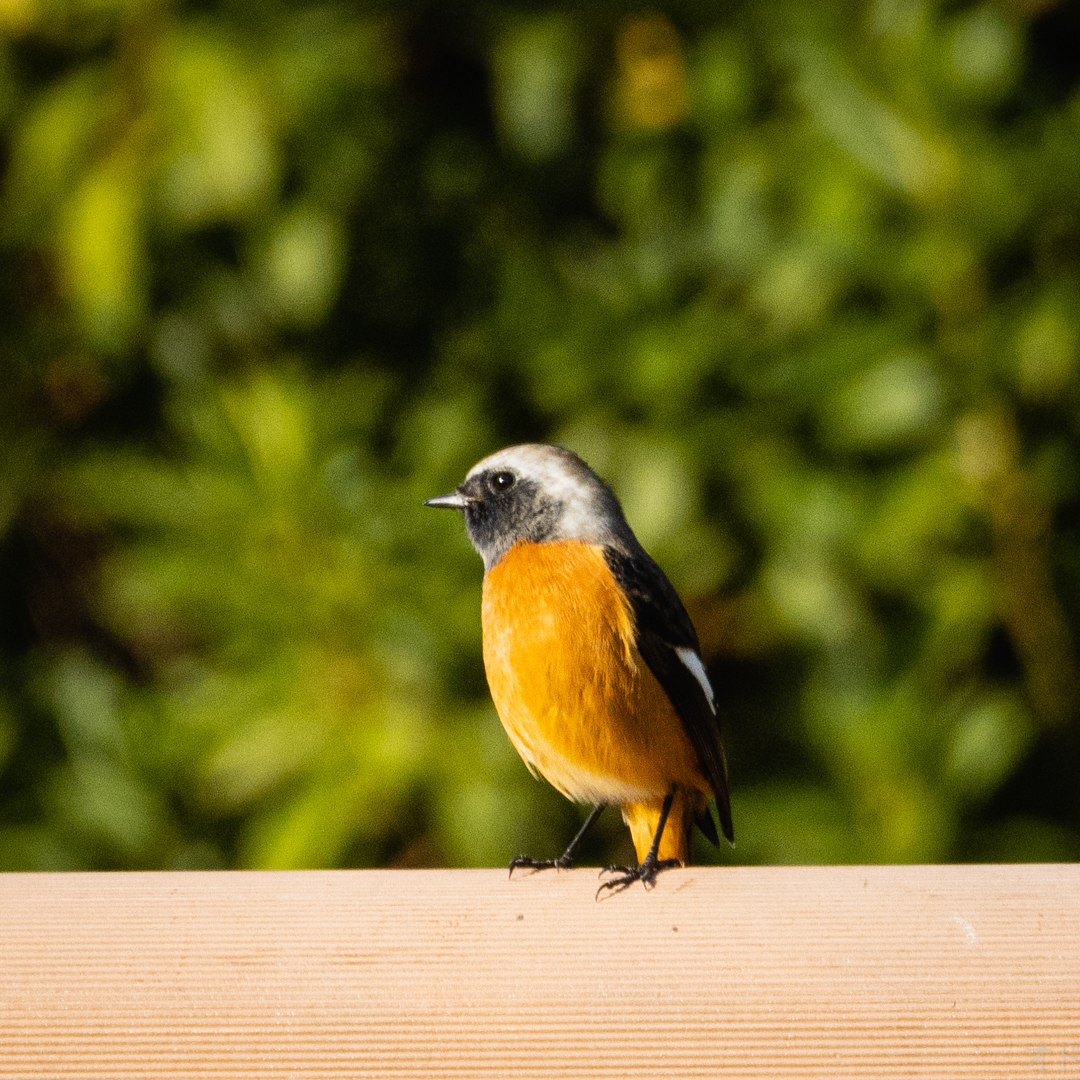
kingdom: Animalia
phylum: Chordata
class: Aves
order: Passeriformes
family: Muscicapidae
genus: Phoenicurus
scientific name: Phoenicurus auroreus
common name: Daurian redstart
